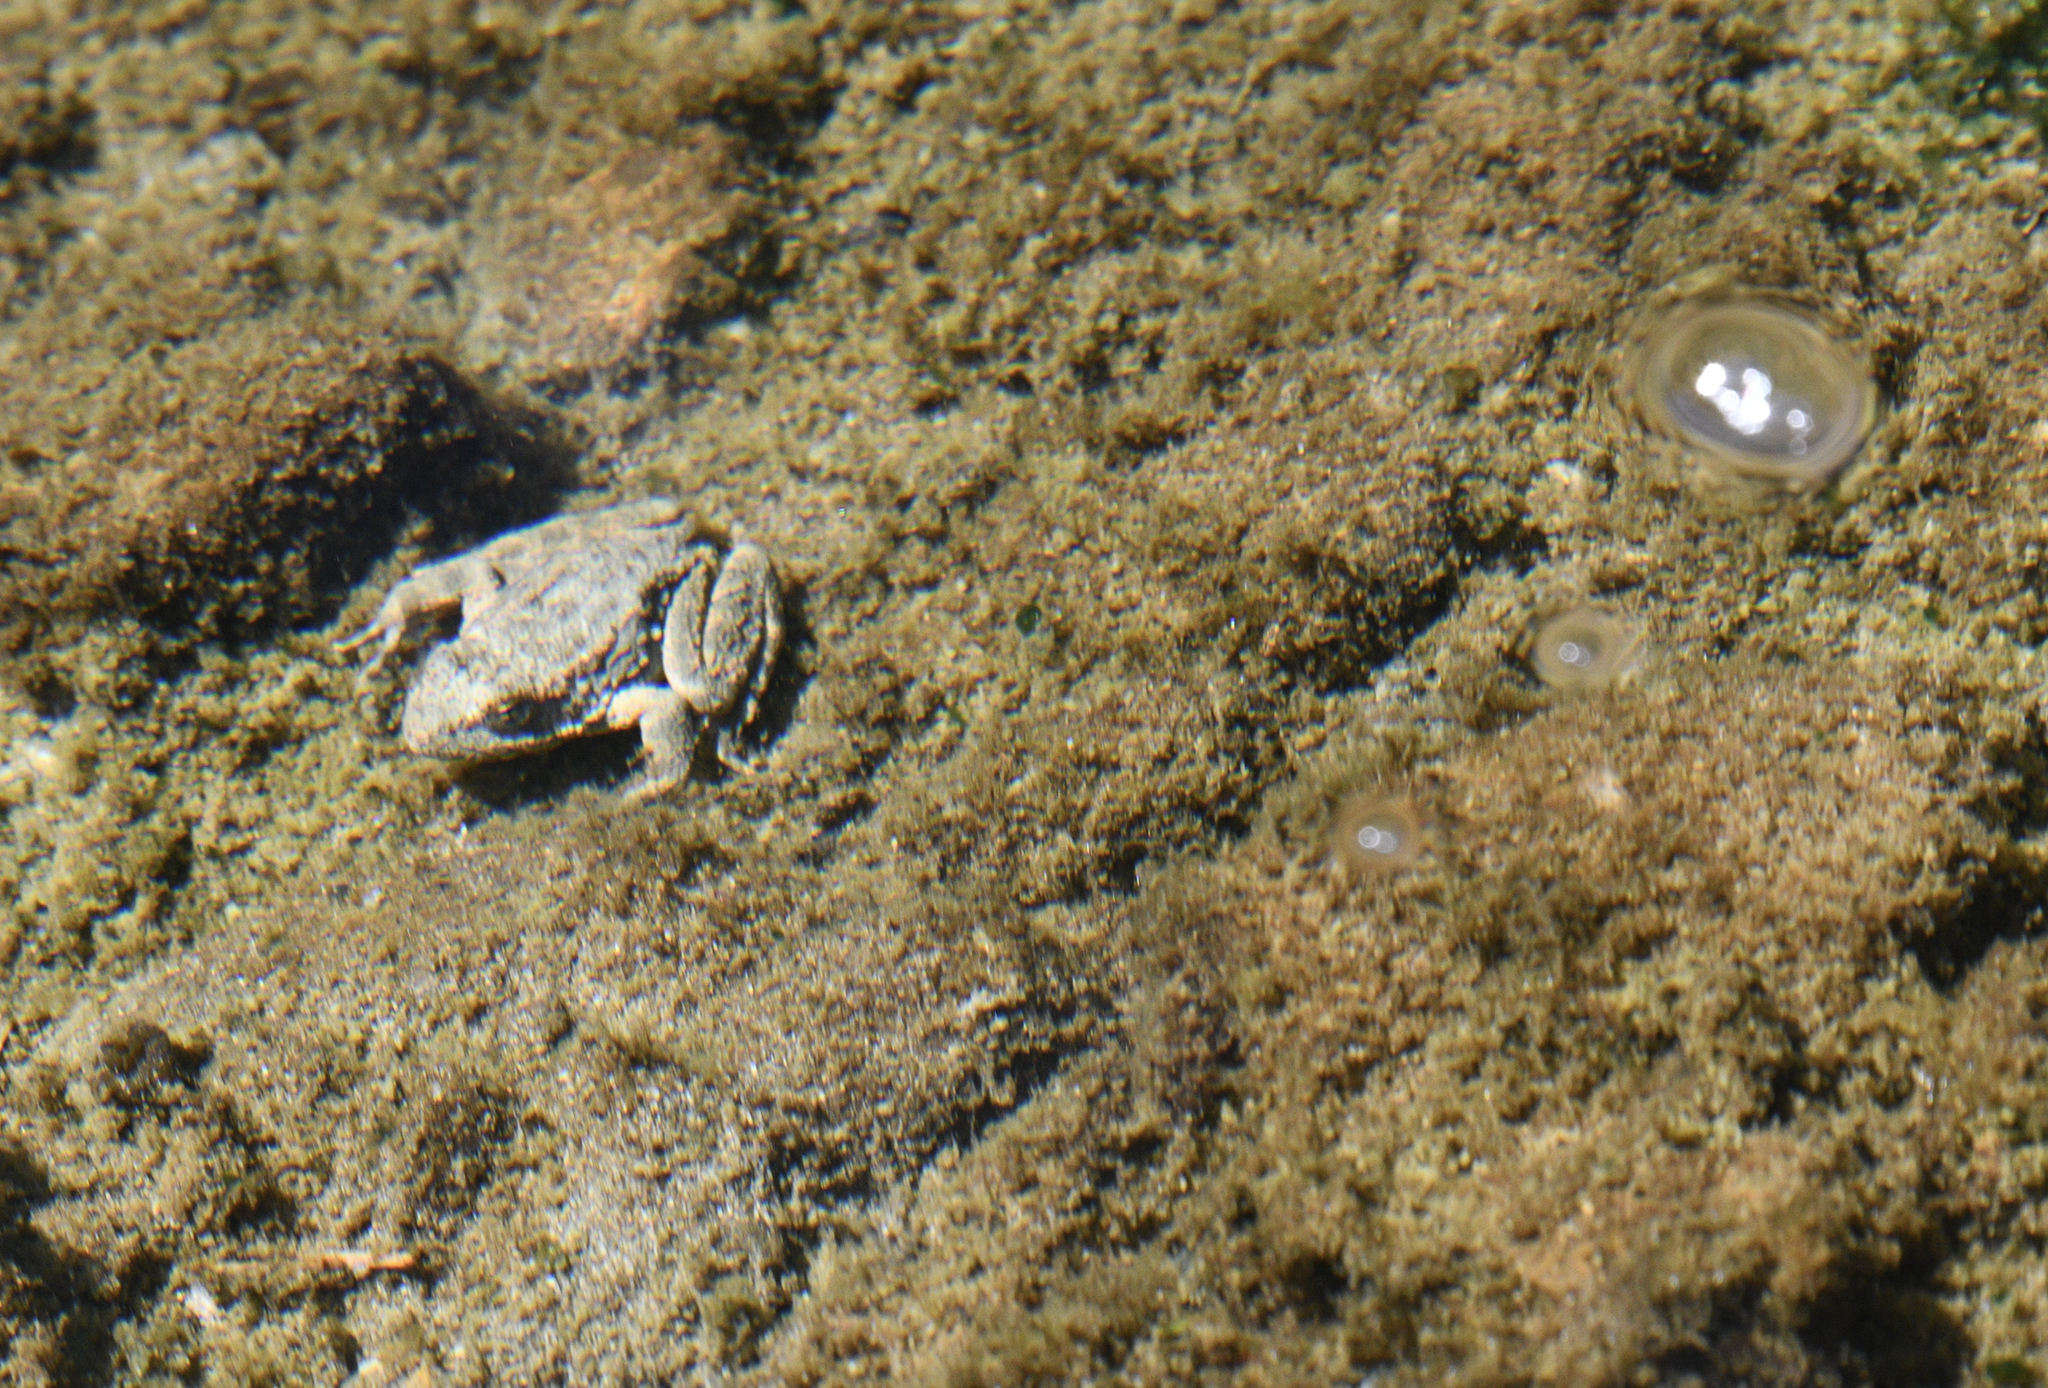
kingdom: Animalia
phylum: Chordata
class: Amphibia
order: Anura
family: Ranidae
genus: Rana
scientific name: Rana boylii
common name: Foothill yellow-legged frog
